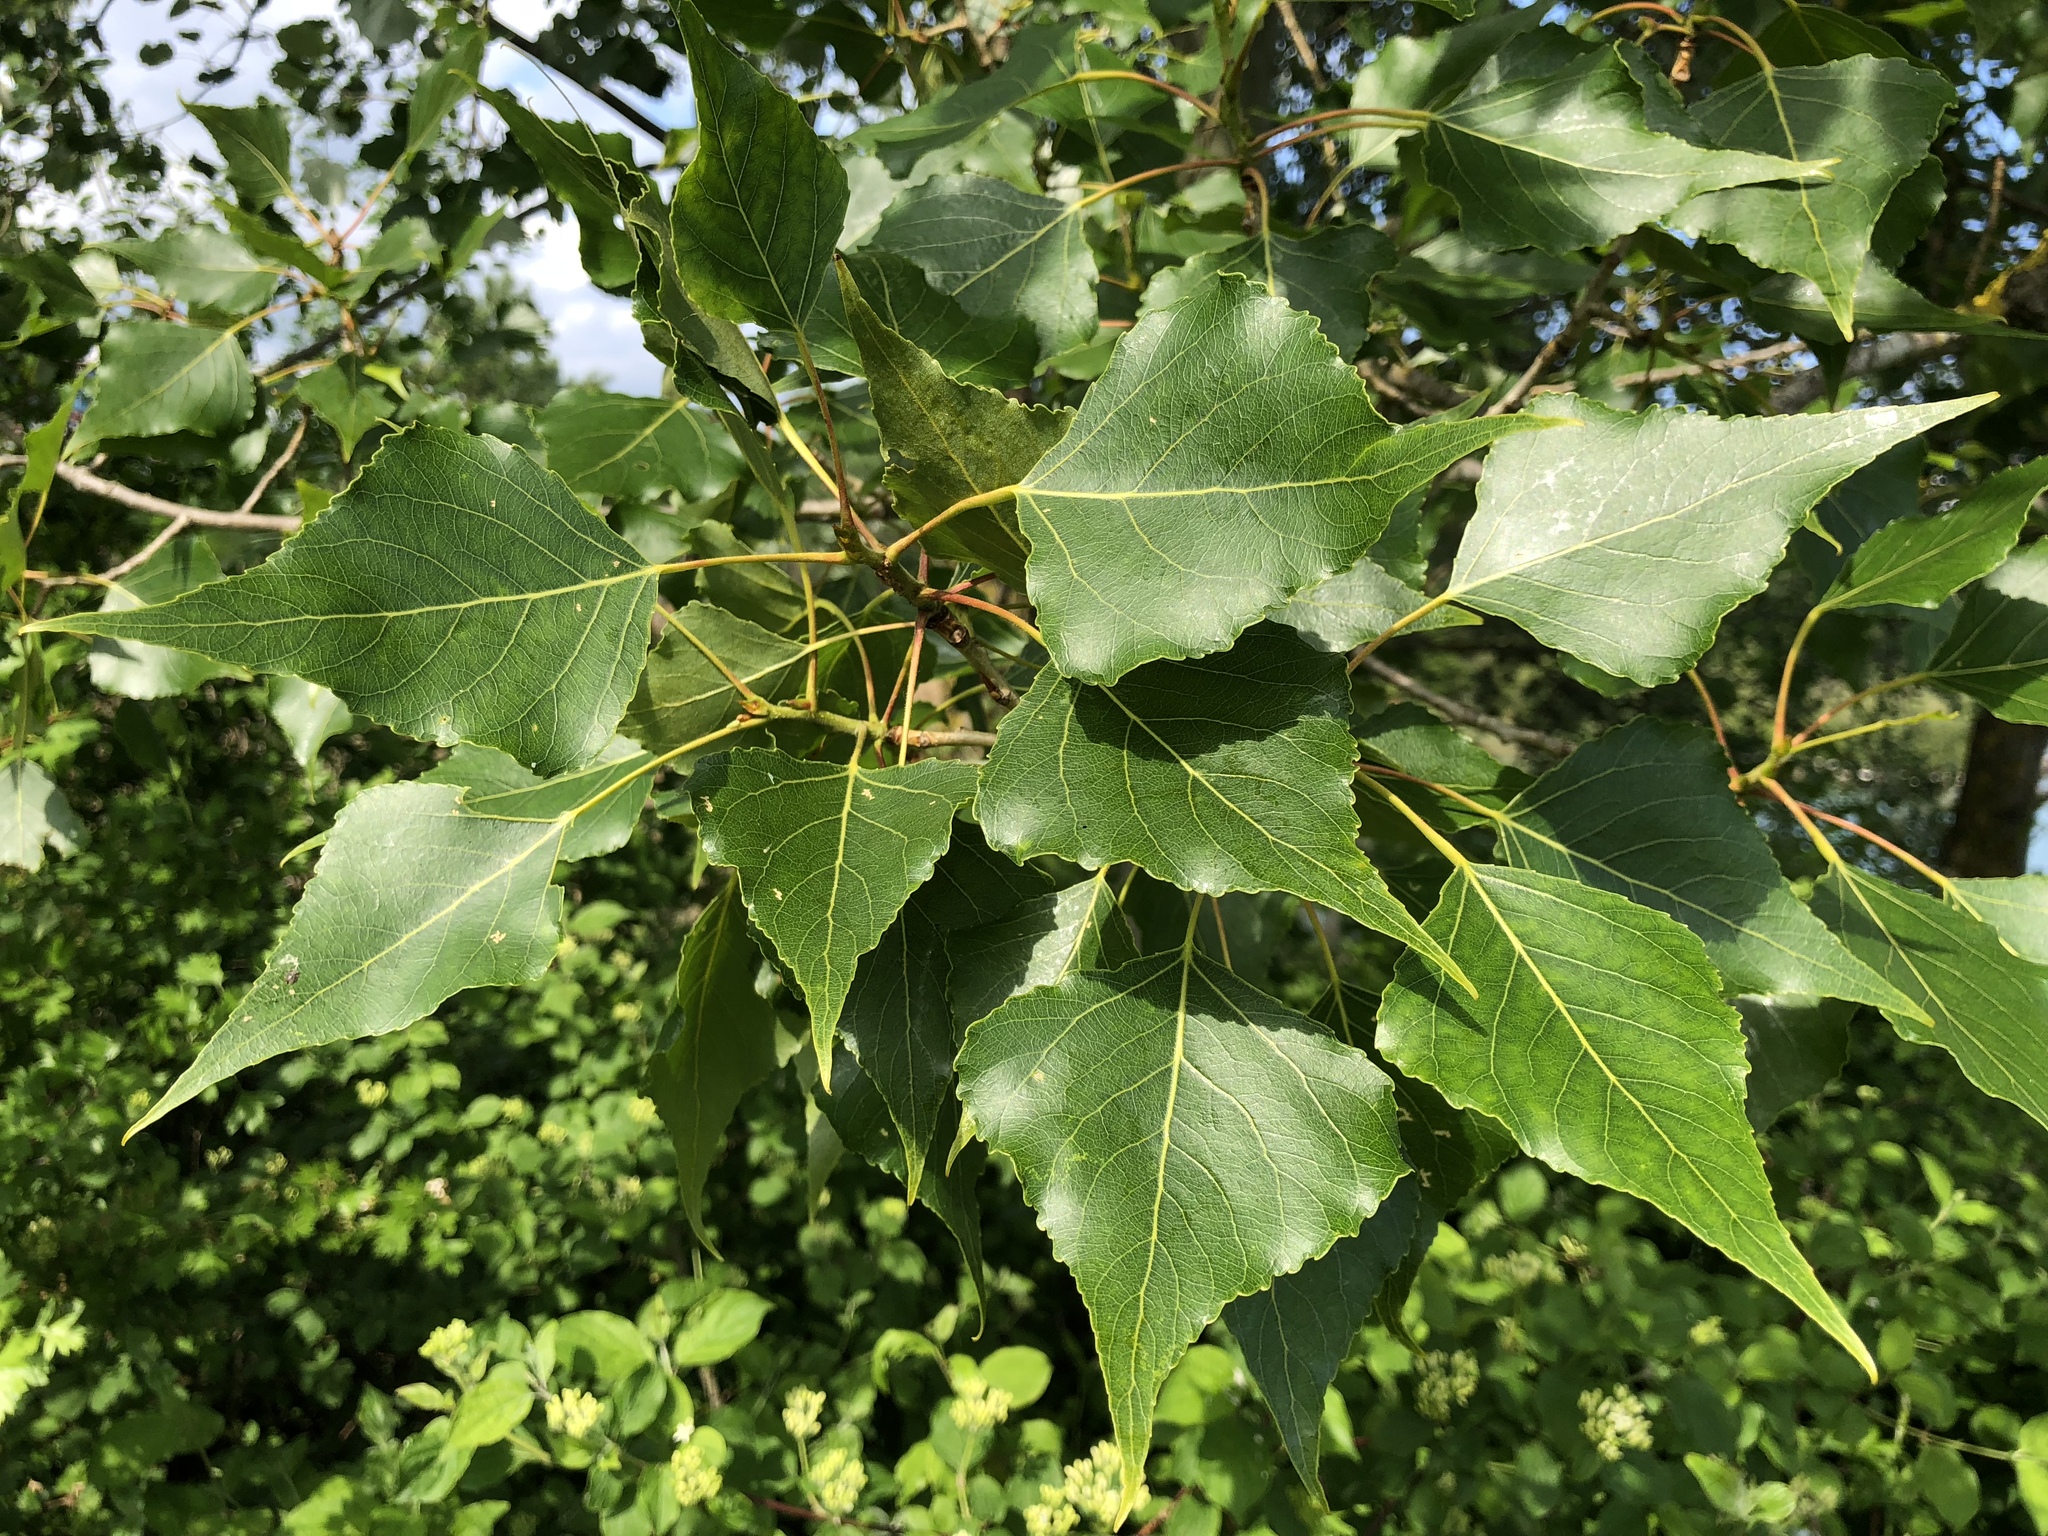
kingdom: Plantae
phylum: Tracheophyta
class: Magnoliopsida
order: Malpighiales
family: Salicaceae
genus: Populus
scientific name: Populus nigra
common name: Black poplar
